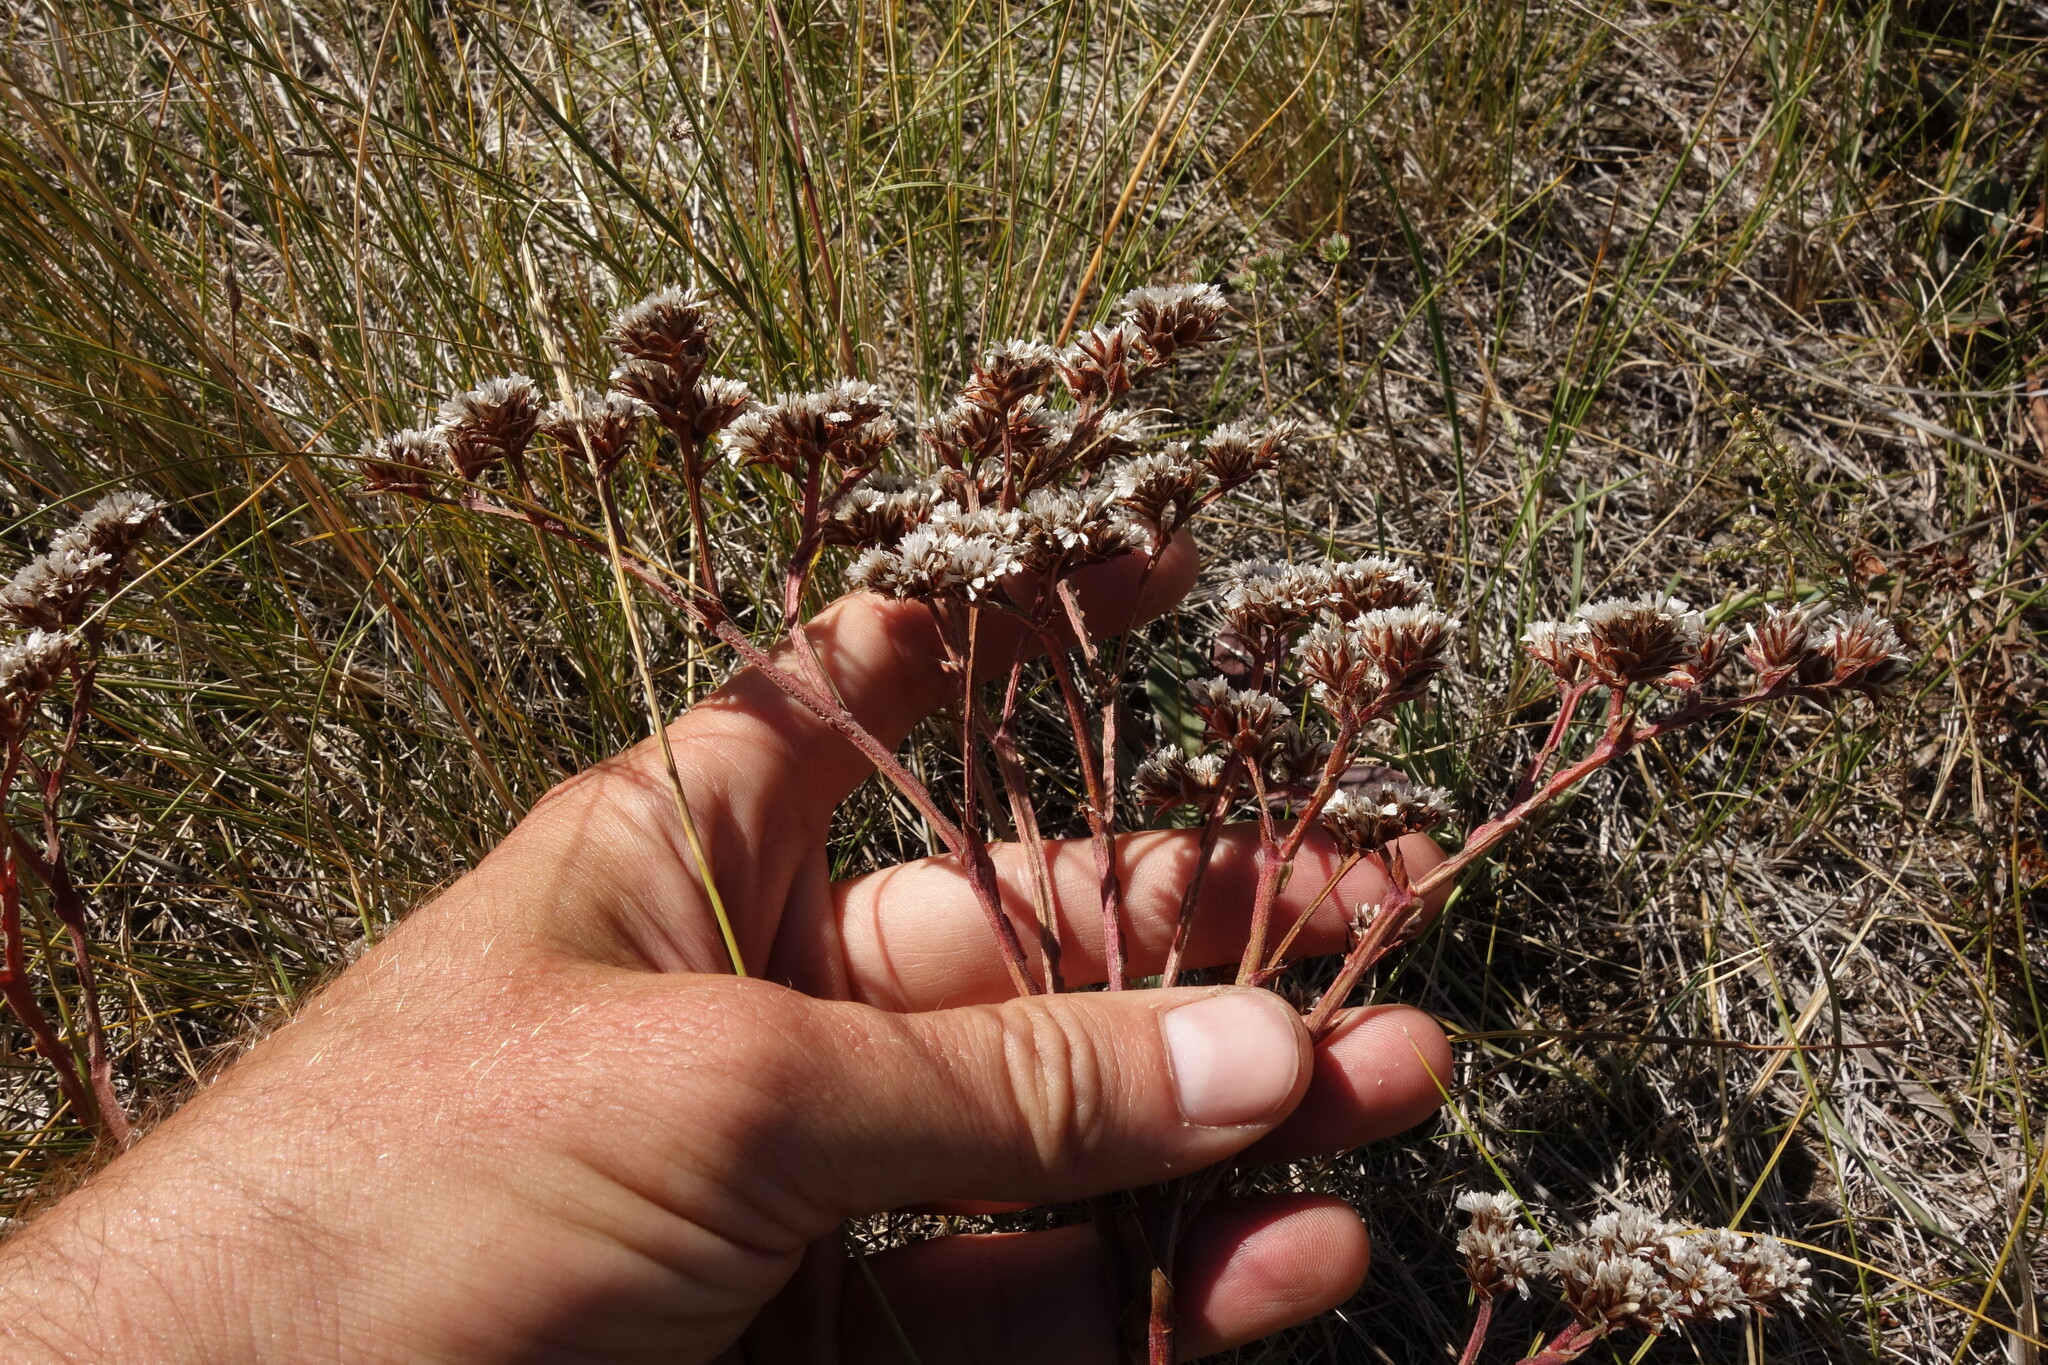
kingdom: Plantae
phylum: Tracheophyta
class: Magnoliopsida
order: Caryophyllales
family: Plumbaginaceae
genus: Goniolimon
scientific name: Goniolimon speciosum
